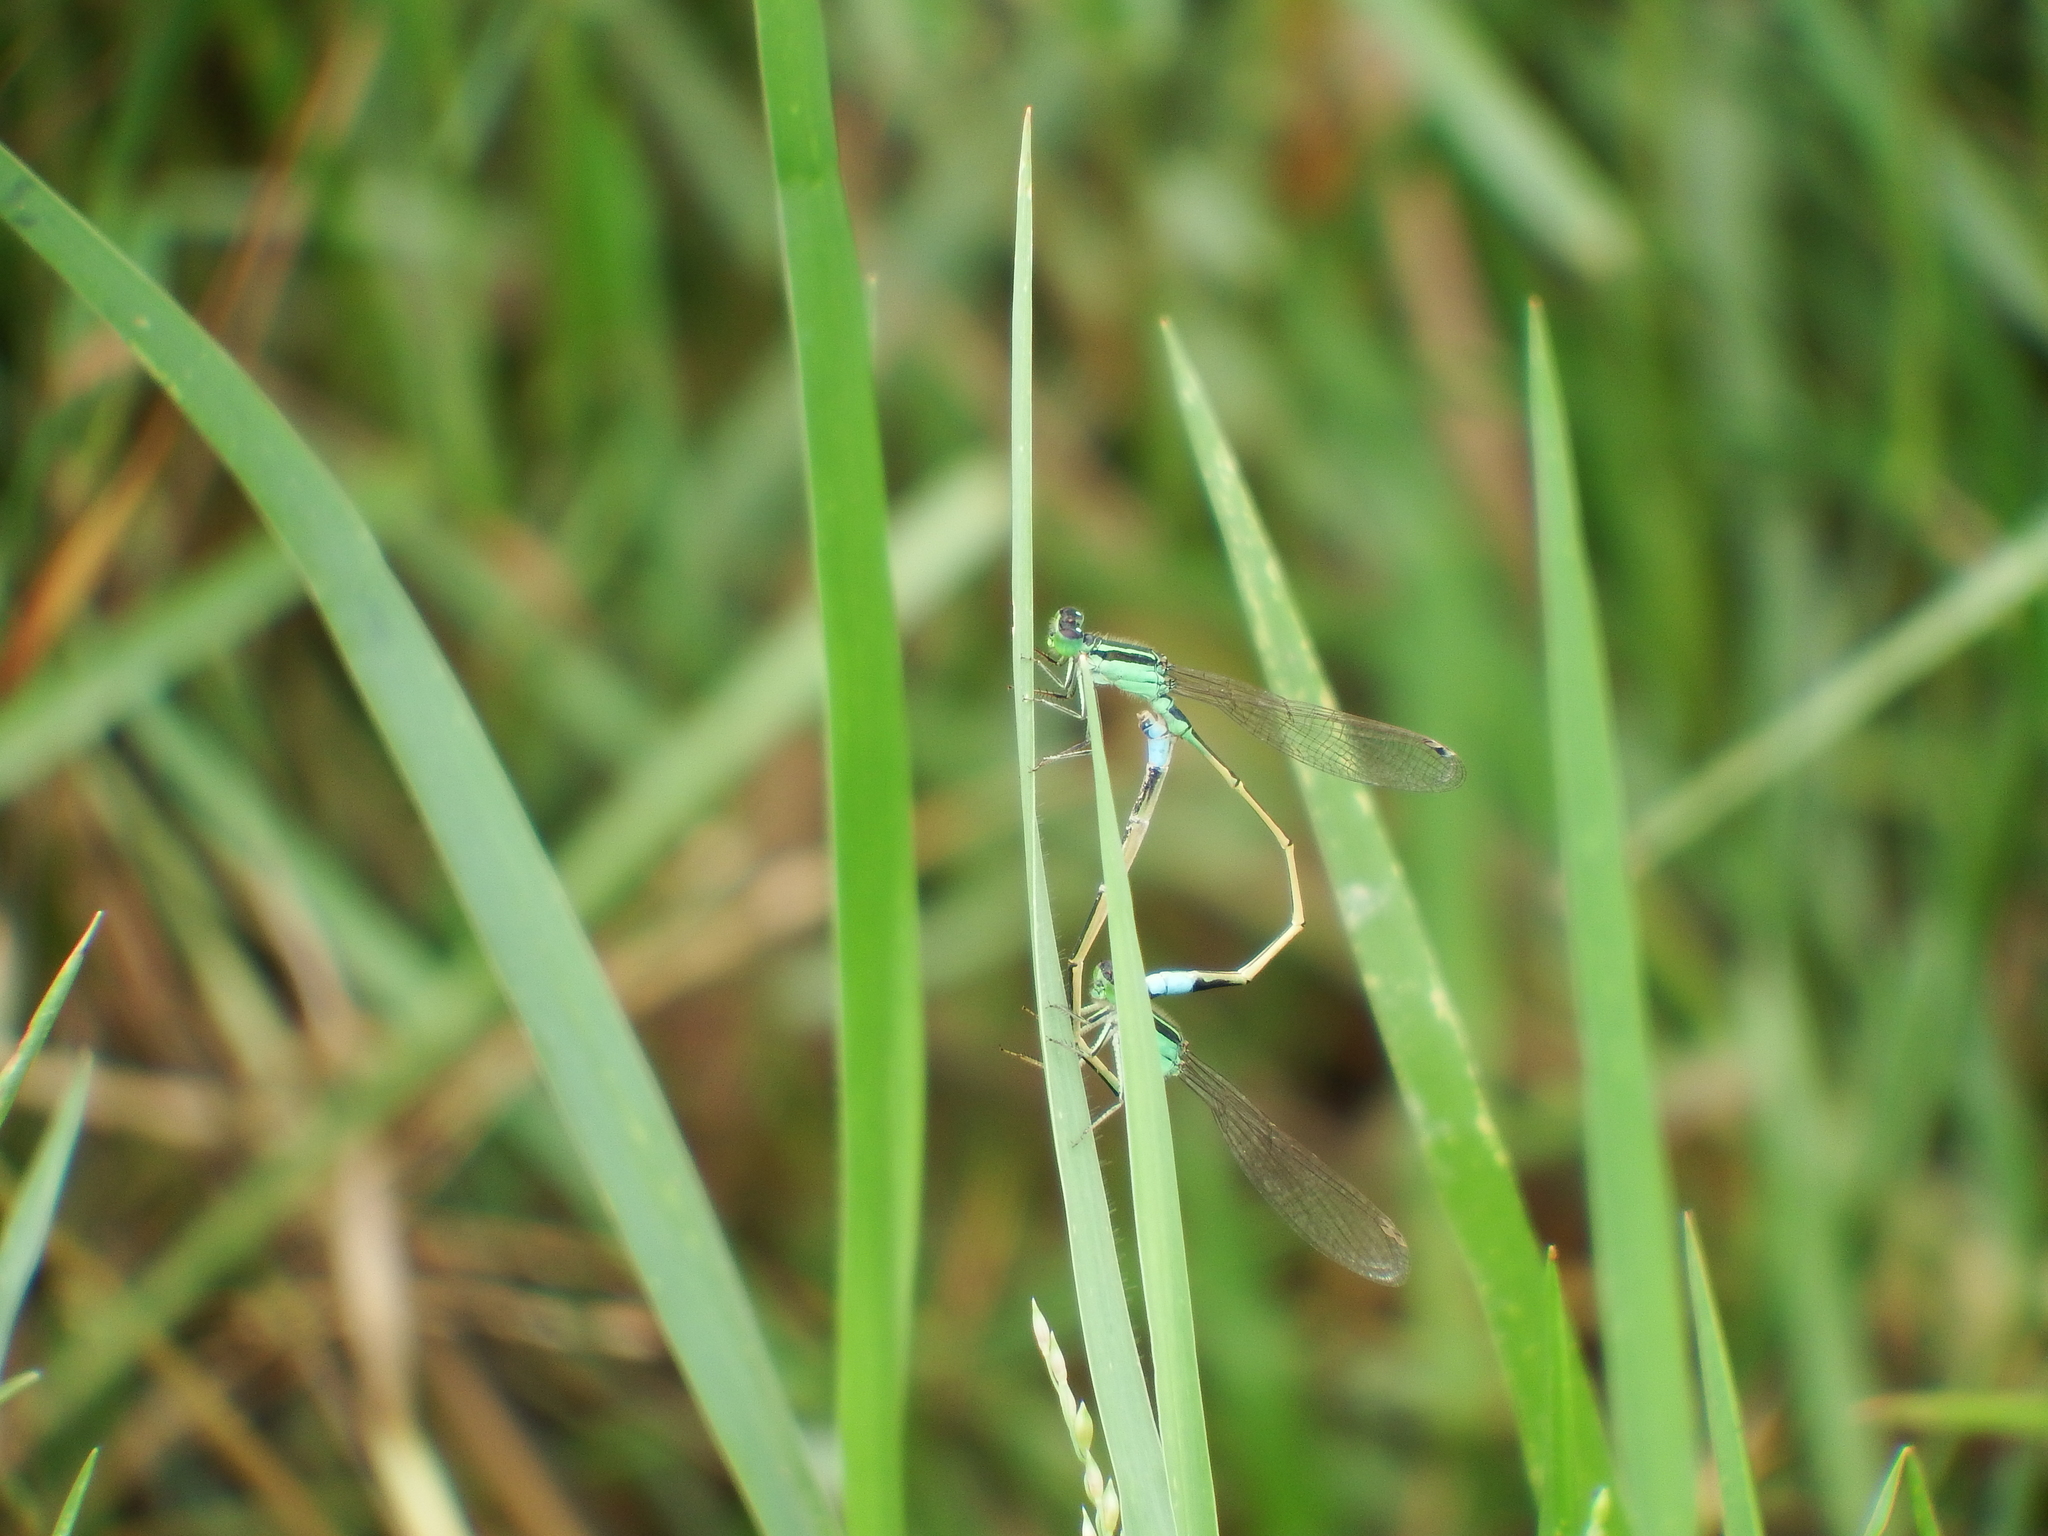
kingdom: Animalia
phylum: Arthropoda
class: Insecta
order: Odonata
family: Coenagrionidae
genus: Ischnura
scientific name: Ischnura senegalensis
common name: Tropical bluetail
